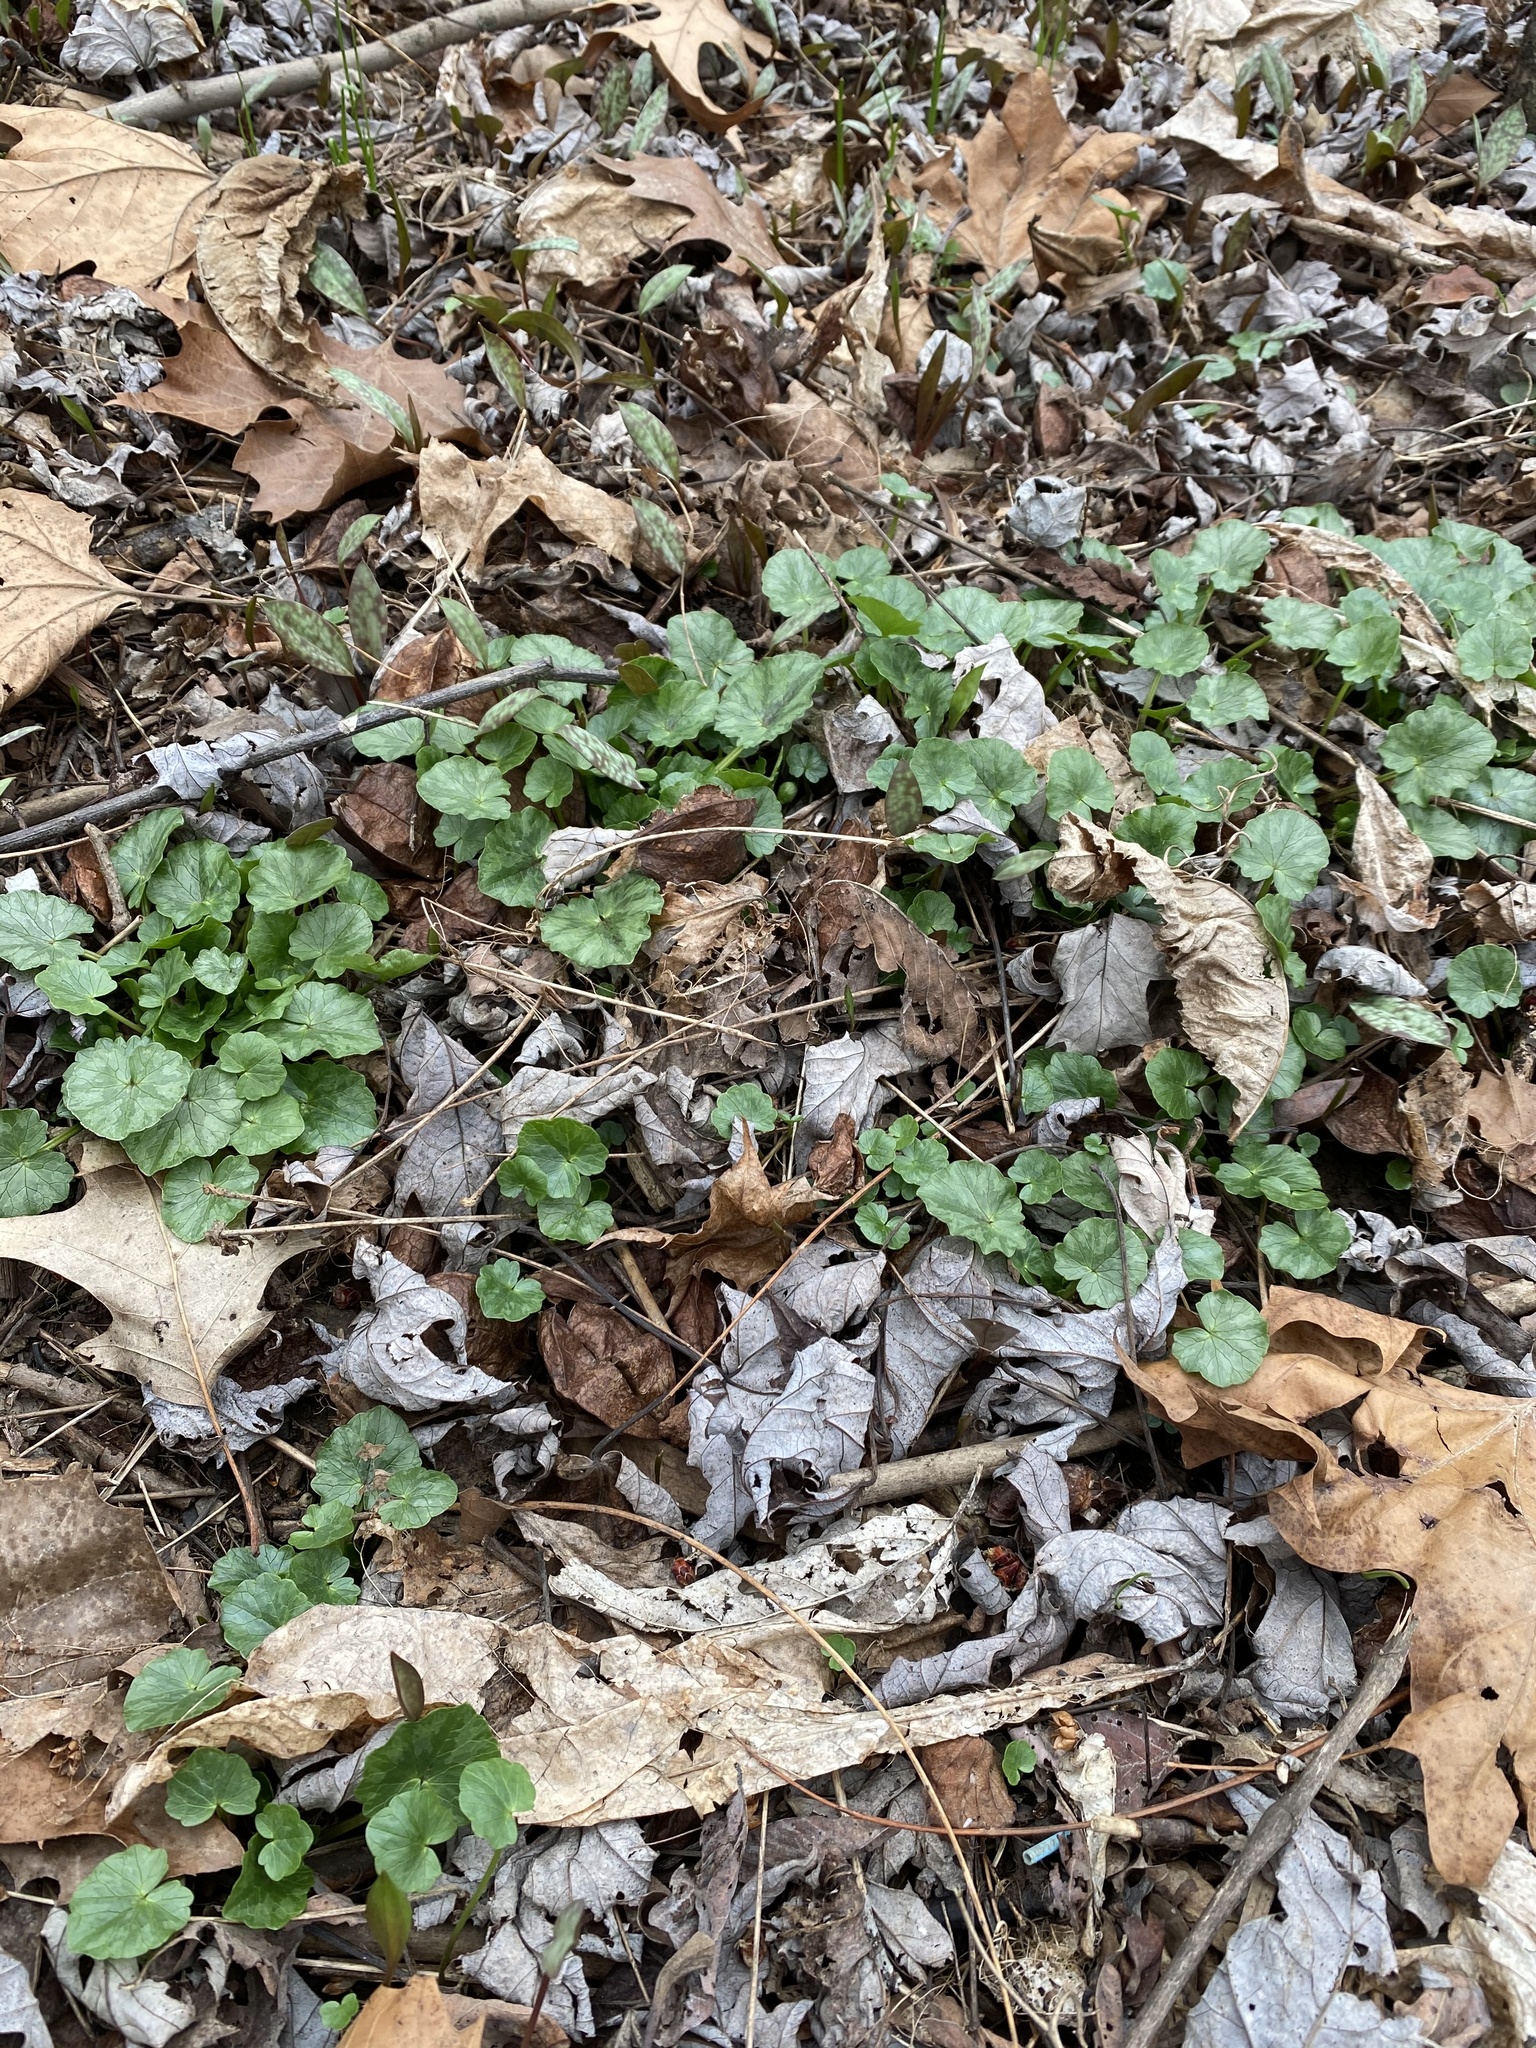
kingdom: Plantae
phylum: Tracheophyta
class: Magnoliopsida
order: Ranunculales
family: Ranunculaceae
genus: Ficaria
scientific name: Ficaria verna
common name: Lesser celandine
